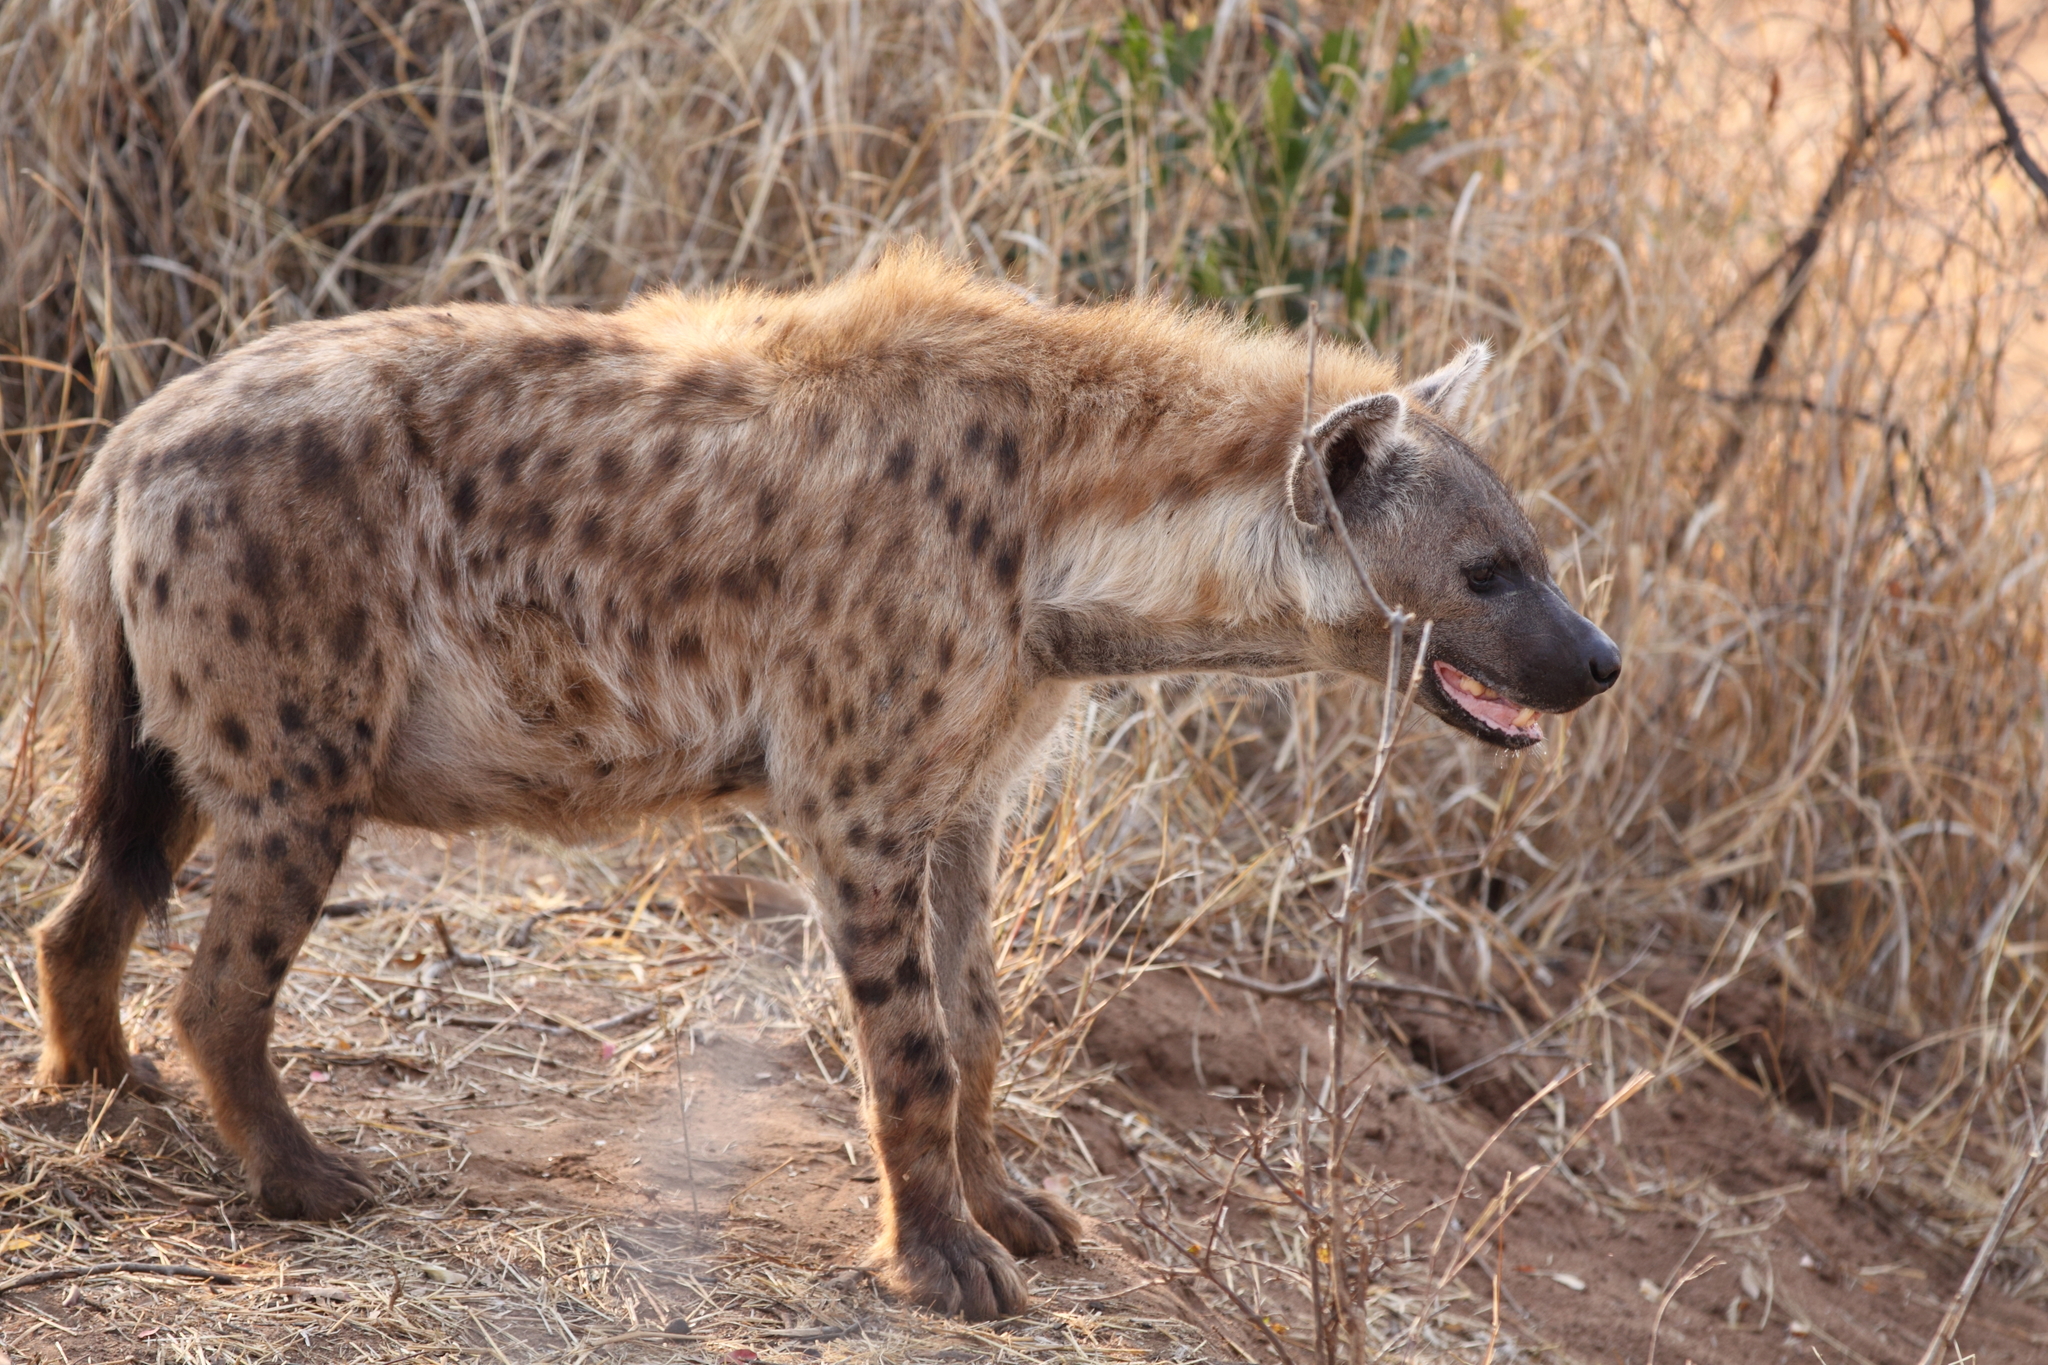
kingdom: Animalia
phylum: Chordata
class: Mammalia
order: Carnivora
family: Hyaenidae
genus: Crocuta
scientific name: Crocuta crocuta
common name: Spotted hyaena
